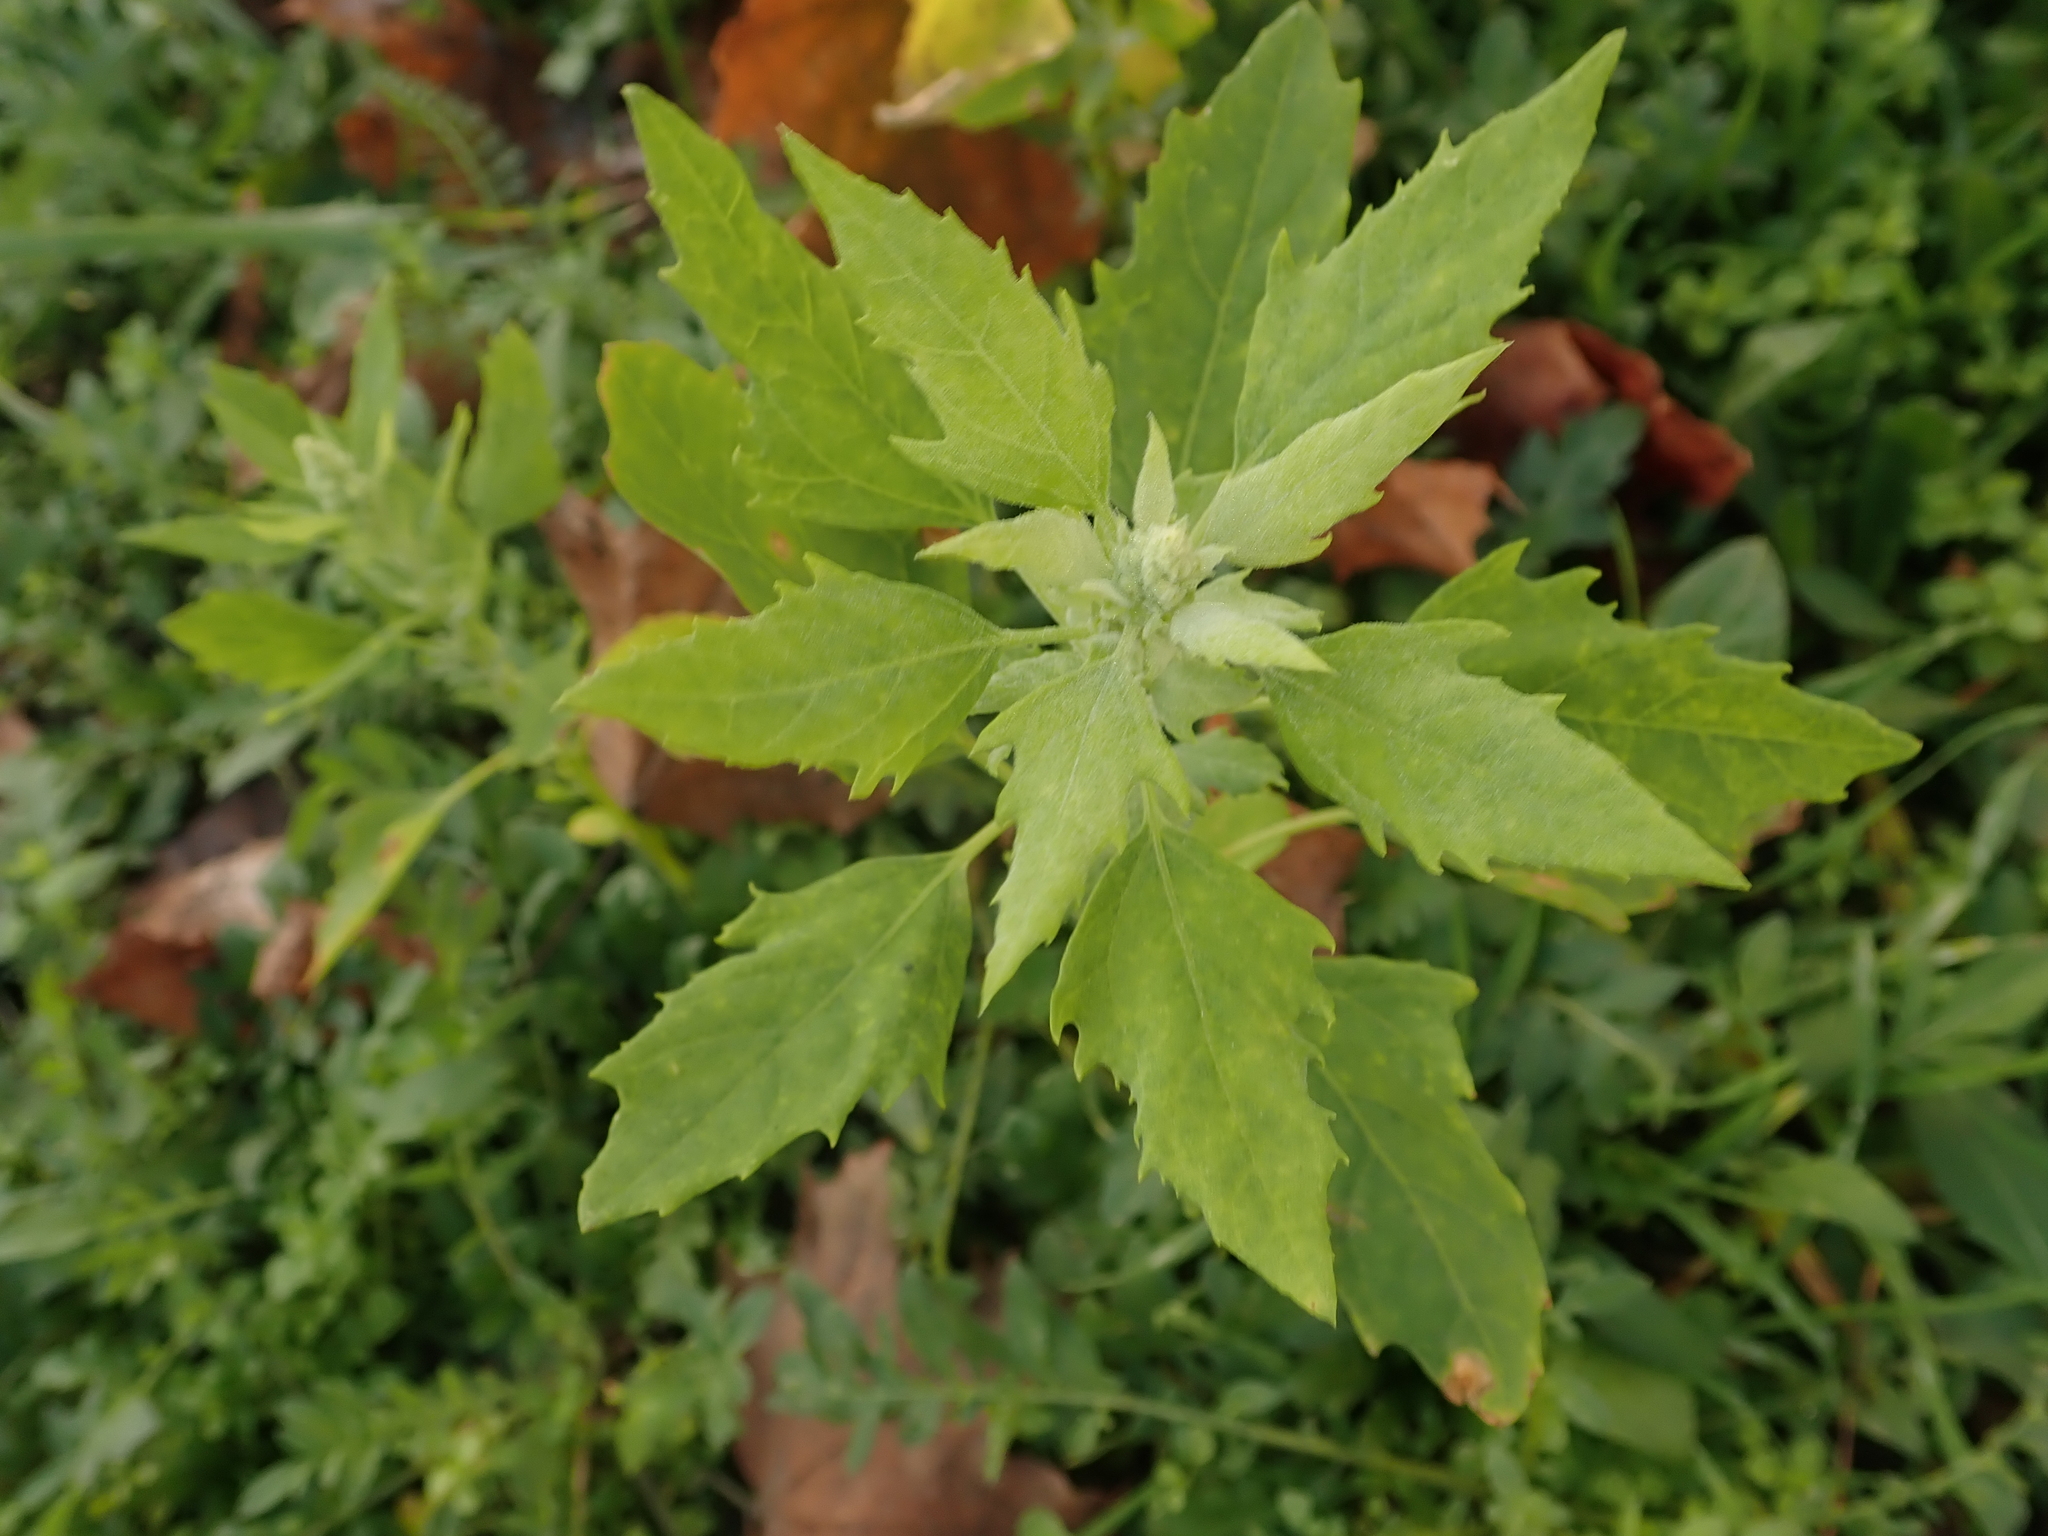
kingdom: Plantae
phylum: Tracheophyta
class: Magnoliopsida
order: Caryophyllales
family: Amaranthaceae
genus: Chenopodium
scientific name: Chenopodium album
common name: Fat-hen
